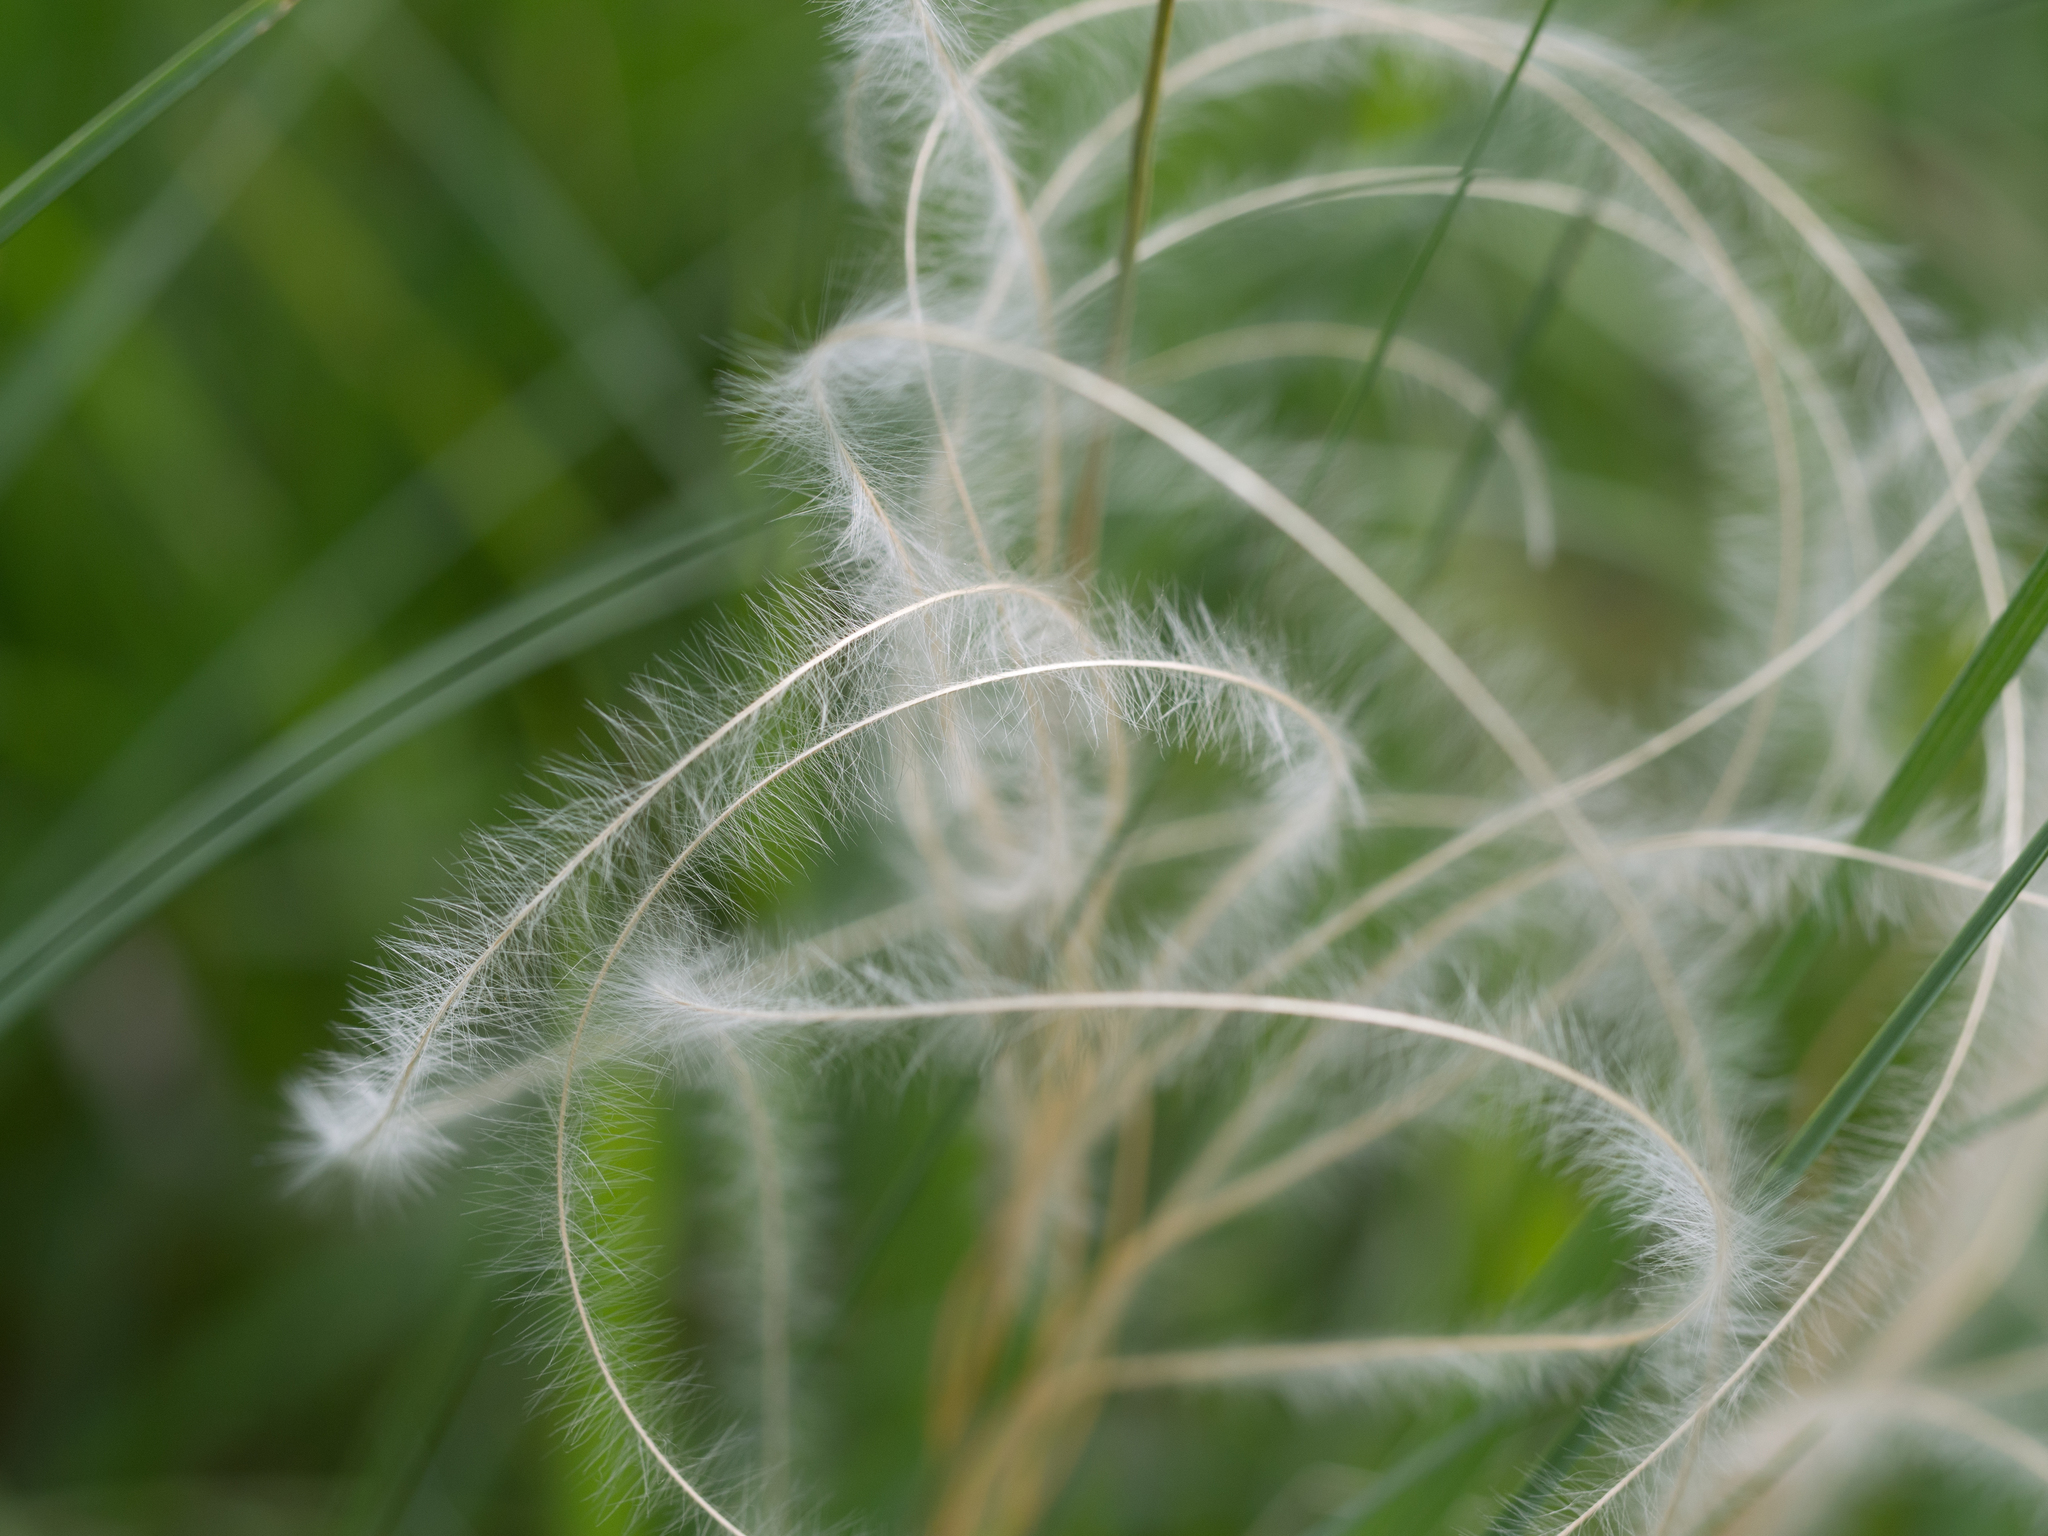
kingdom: Plantae
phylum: Tracheophyta
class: Liliopsida
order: Poales
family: Poaceae
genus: Stipa
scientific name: Stipa pennata
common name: European feather grass
